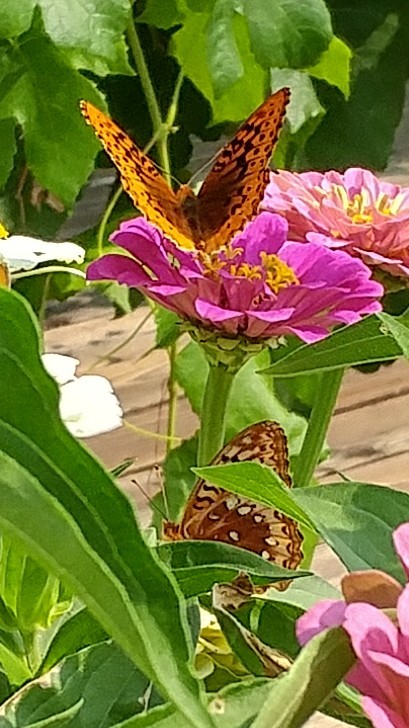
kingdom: Animalia
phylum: Arthropoda
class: Insecta
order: Lepidoptera
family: Nymphalidae
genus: Speyeria
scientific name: Speyeria cybele
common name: Great spangled fritillary
